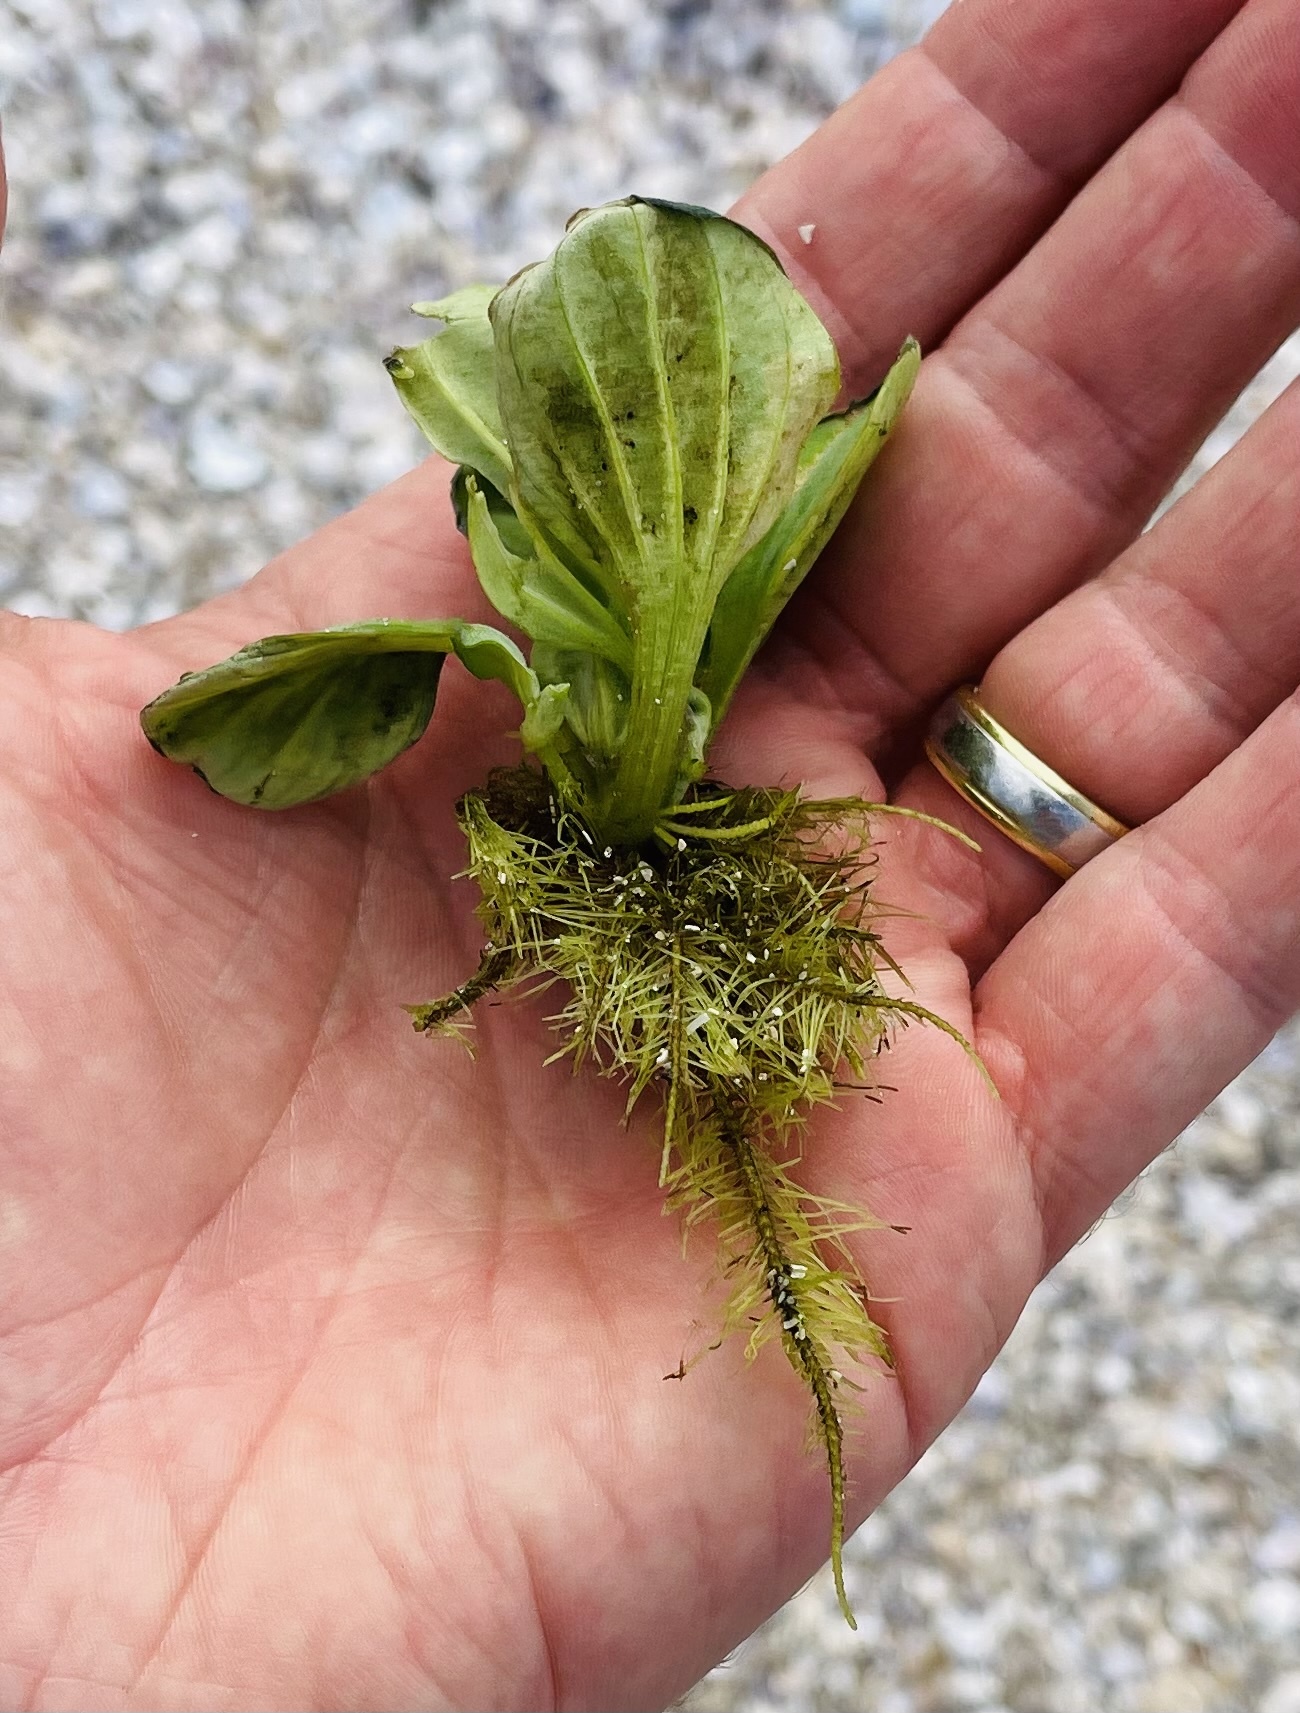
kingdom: Plantae
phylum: Tracheophyta
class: Liliopsida
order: Alismatales
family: Araceae
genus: Pistia
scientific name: Pistia stratiotes
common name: Water lettuce
